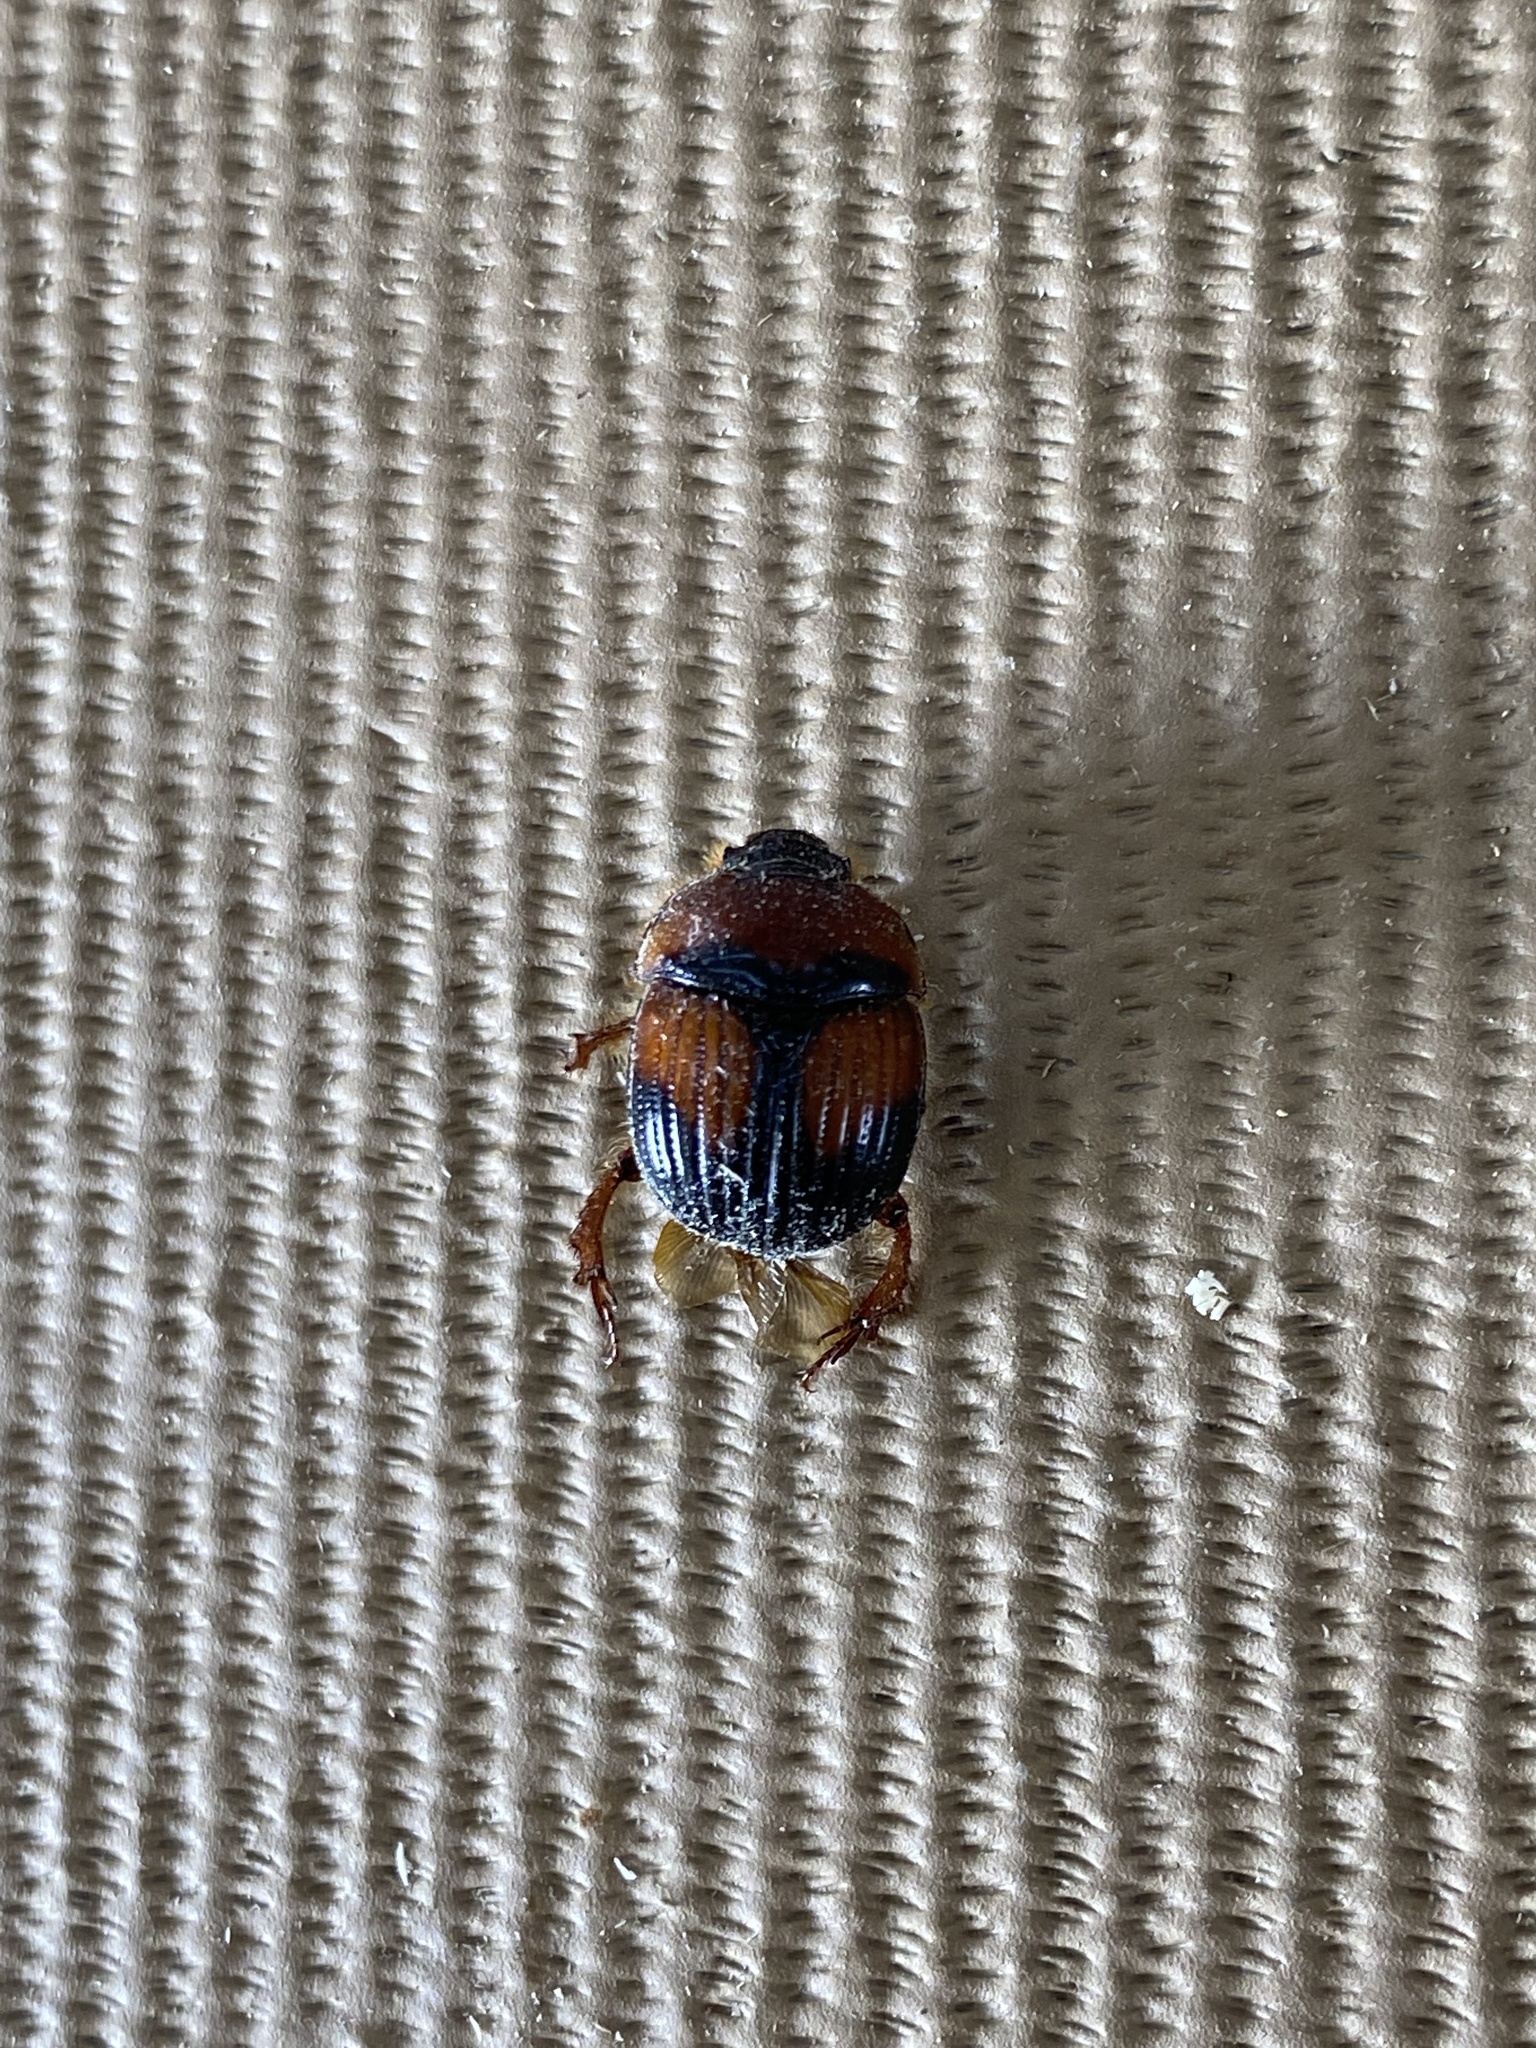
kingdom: Animalia
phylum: Arthropoda
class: Insecta
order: Coleoptera
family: Geotrupidae
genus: Bolbocerosoma
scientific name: Bolbocerosoma farctum
